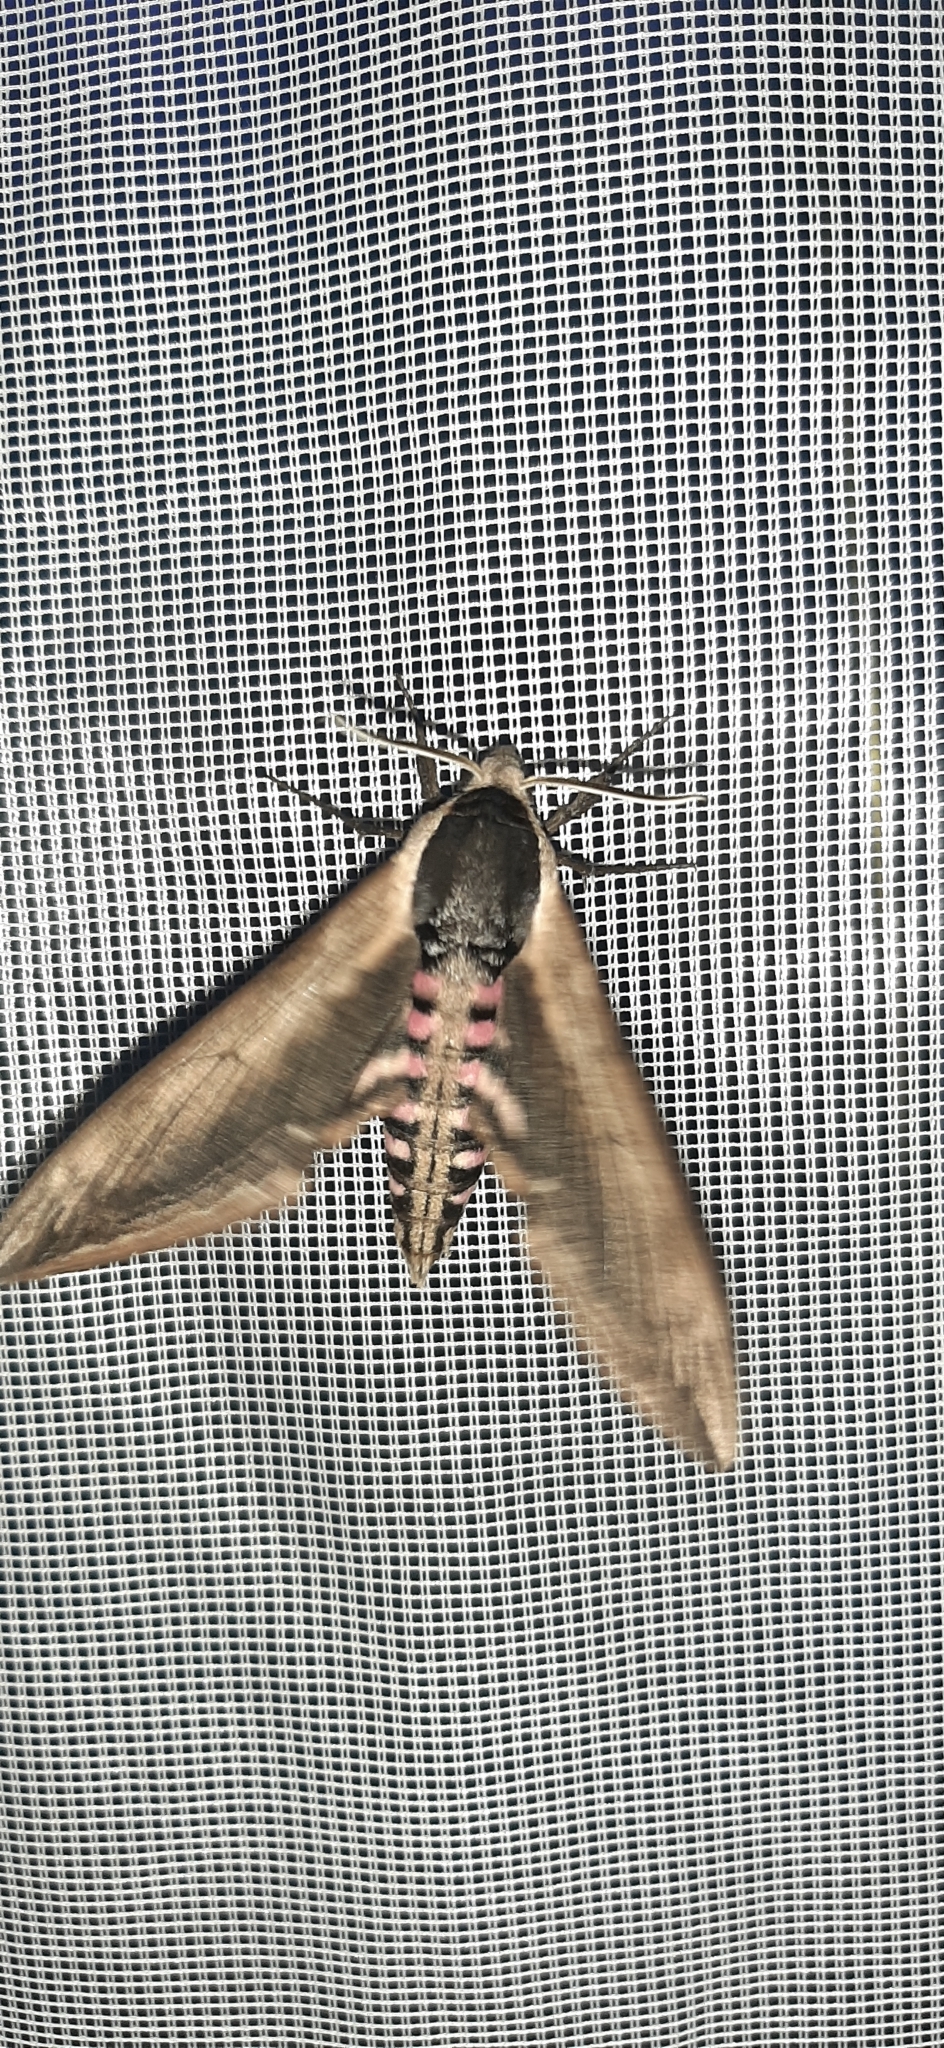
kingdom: Animalia
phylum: Arthropoda
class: Insecta
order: Lepidoptera
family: Sphingidae
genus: Sphinx
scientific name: Sphinx ligustri
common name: Privet hawk-moth
